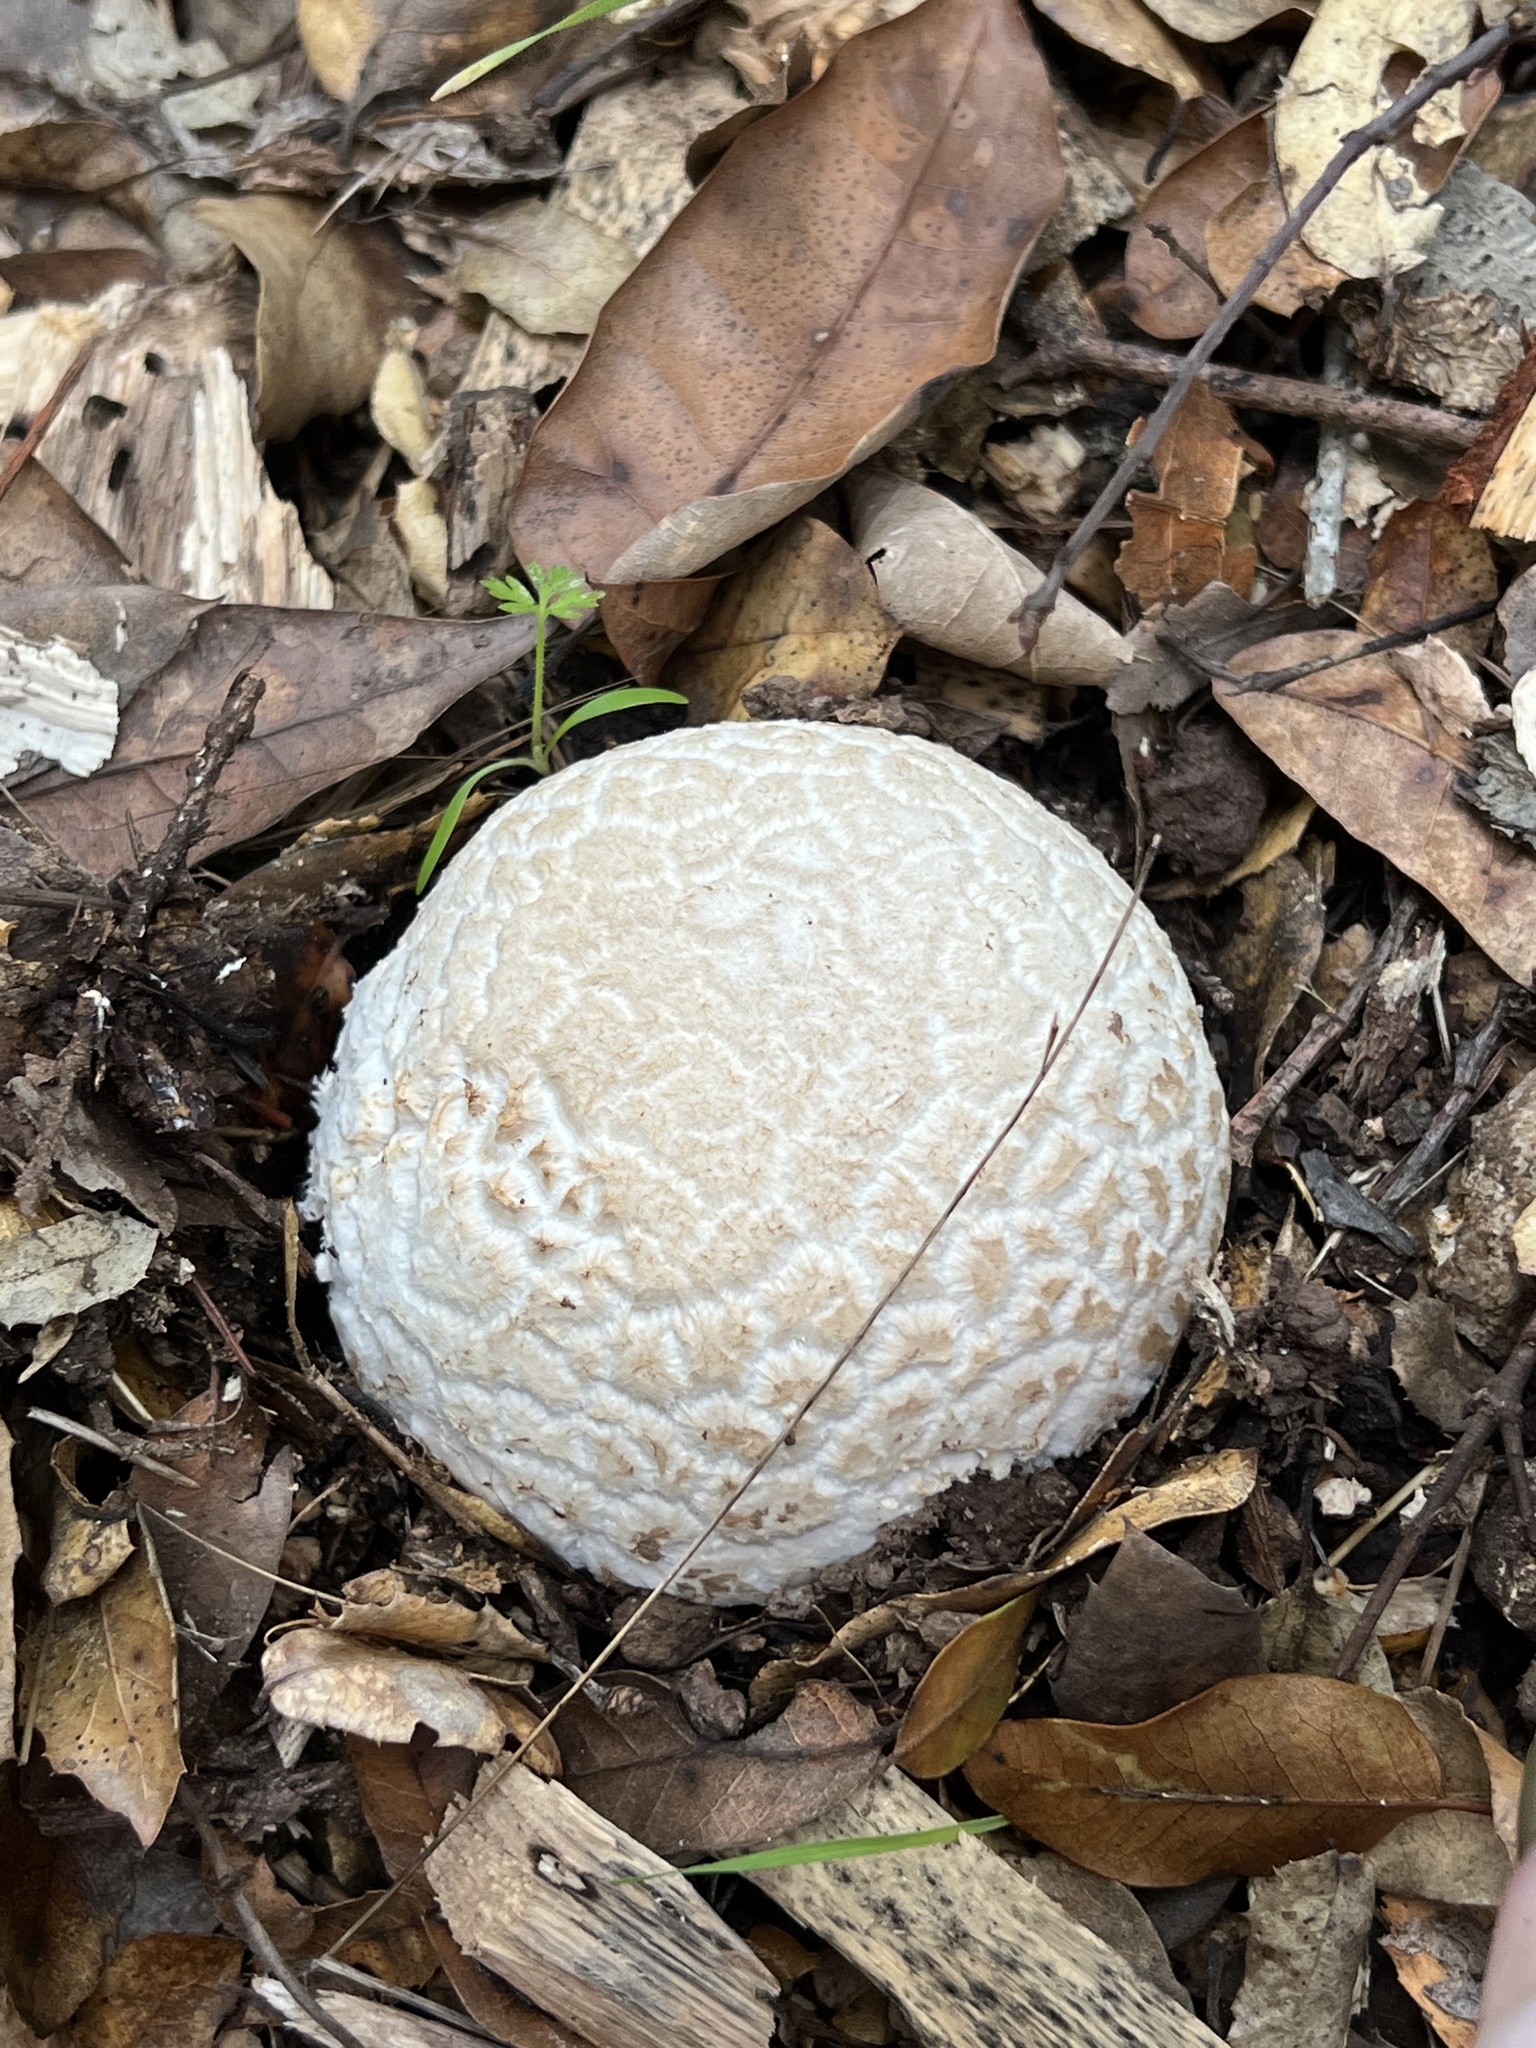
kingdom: Fungi
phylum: Basidiomycota
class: Agaricomycetes
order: Agaricales
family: Amanitaceae
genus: Amanita
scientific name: Amanita novinupta
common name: Blushing bride
